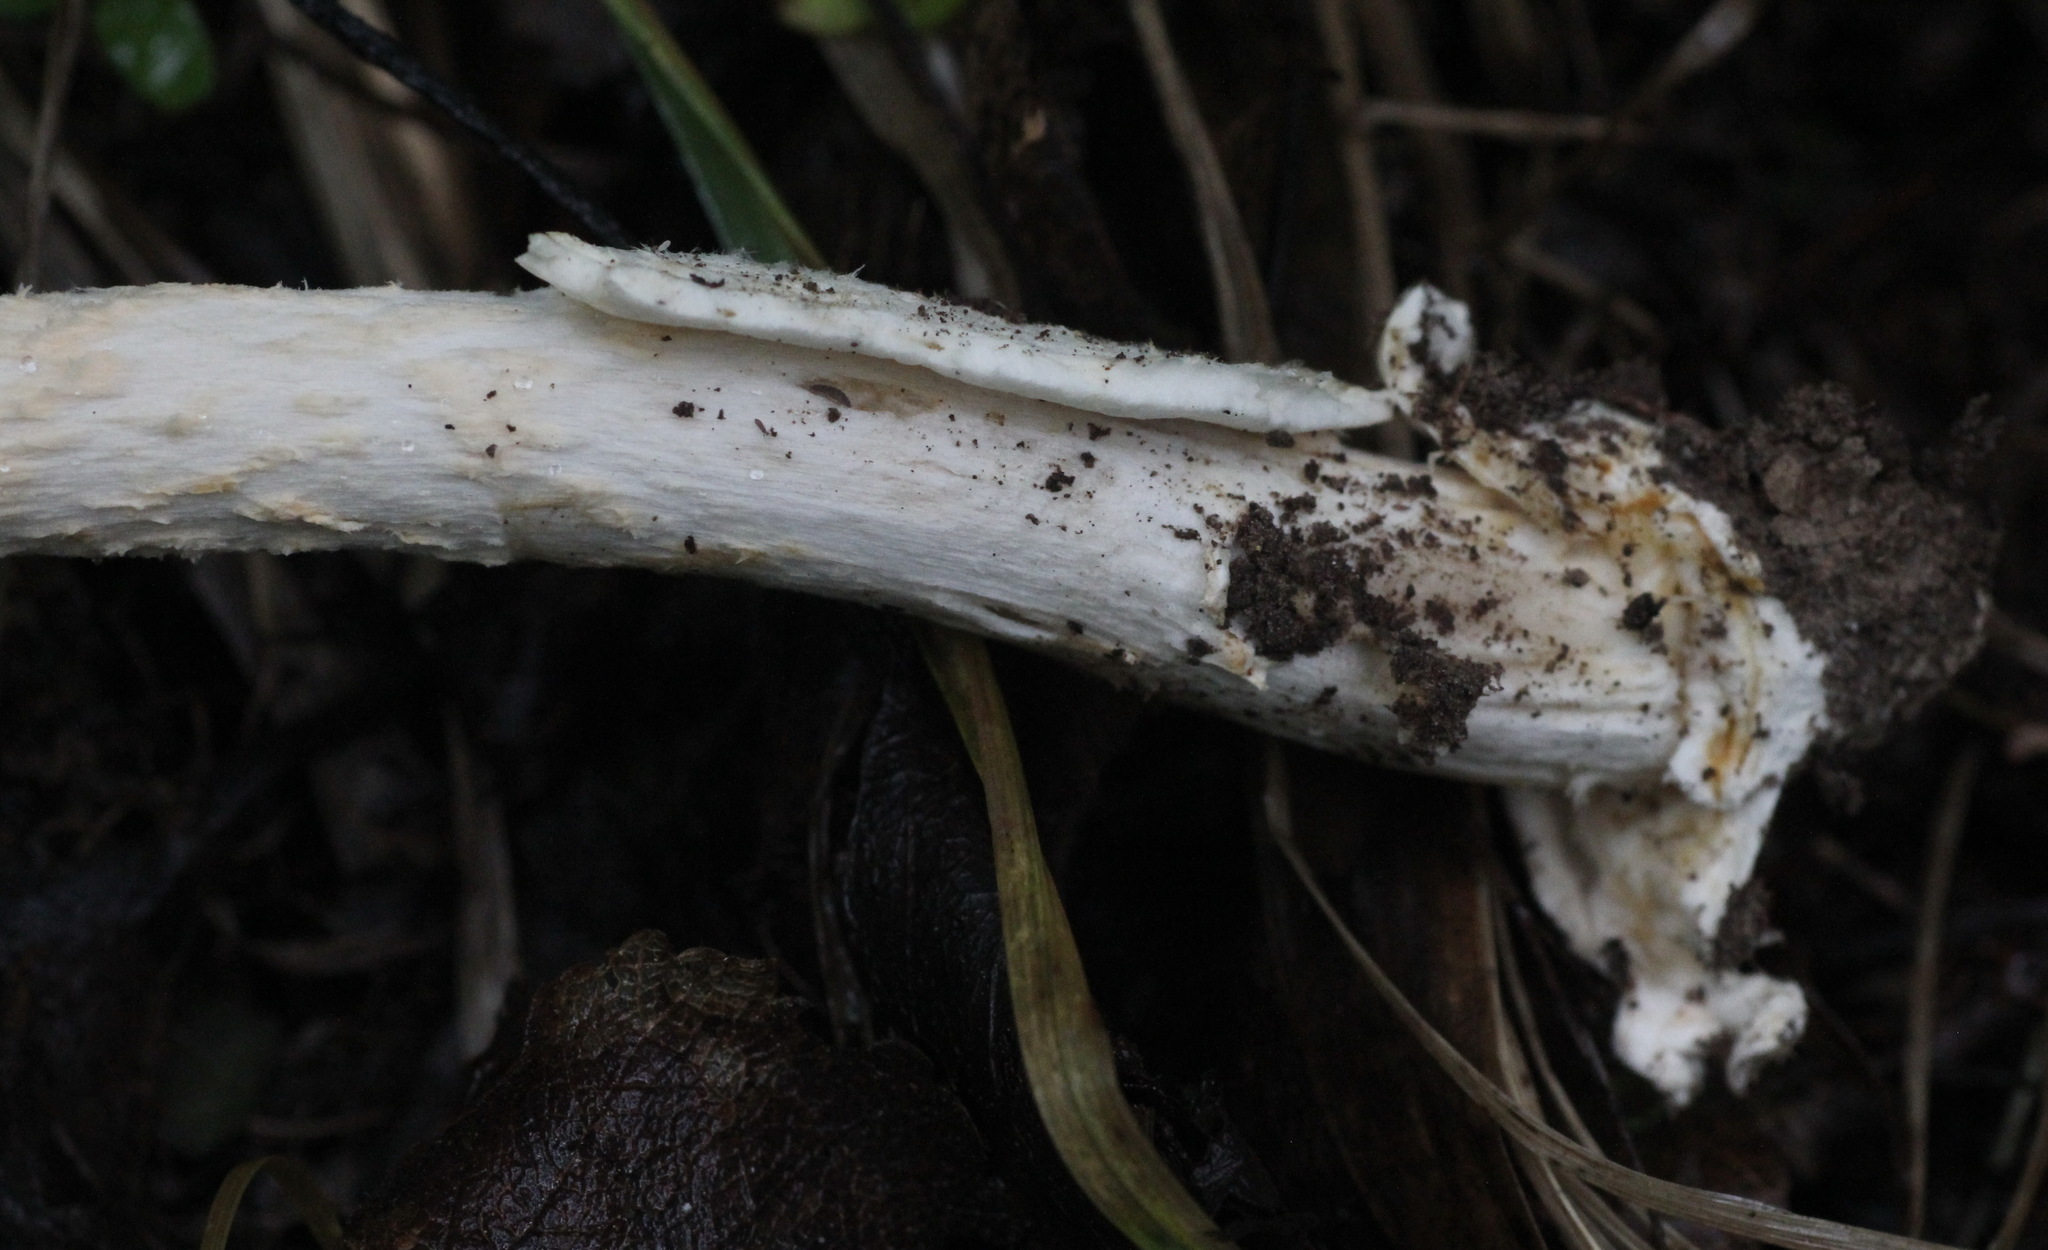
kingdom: Fungi
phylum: Basidiomycota
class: Agaricomycetes
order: Agaricales
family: Amanitaceae
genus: Amanita
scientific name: Amanita contui
